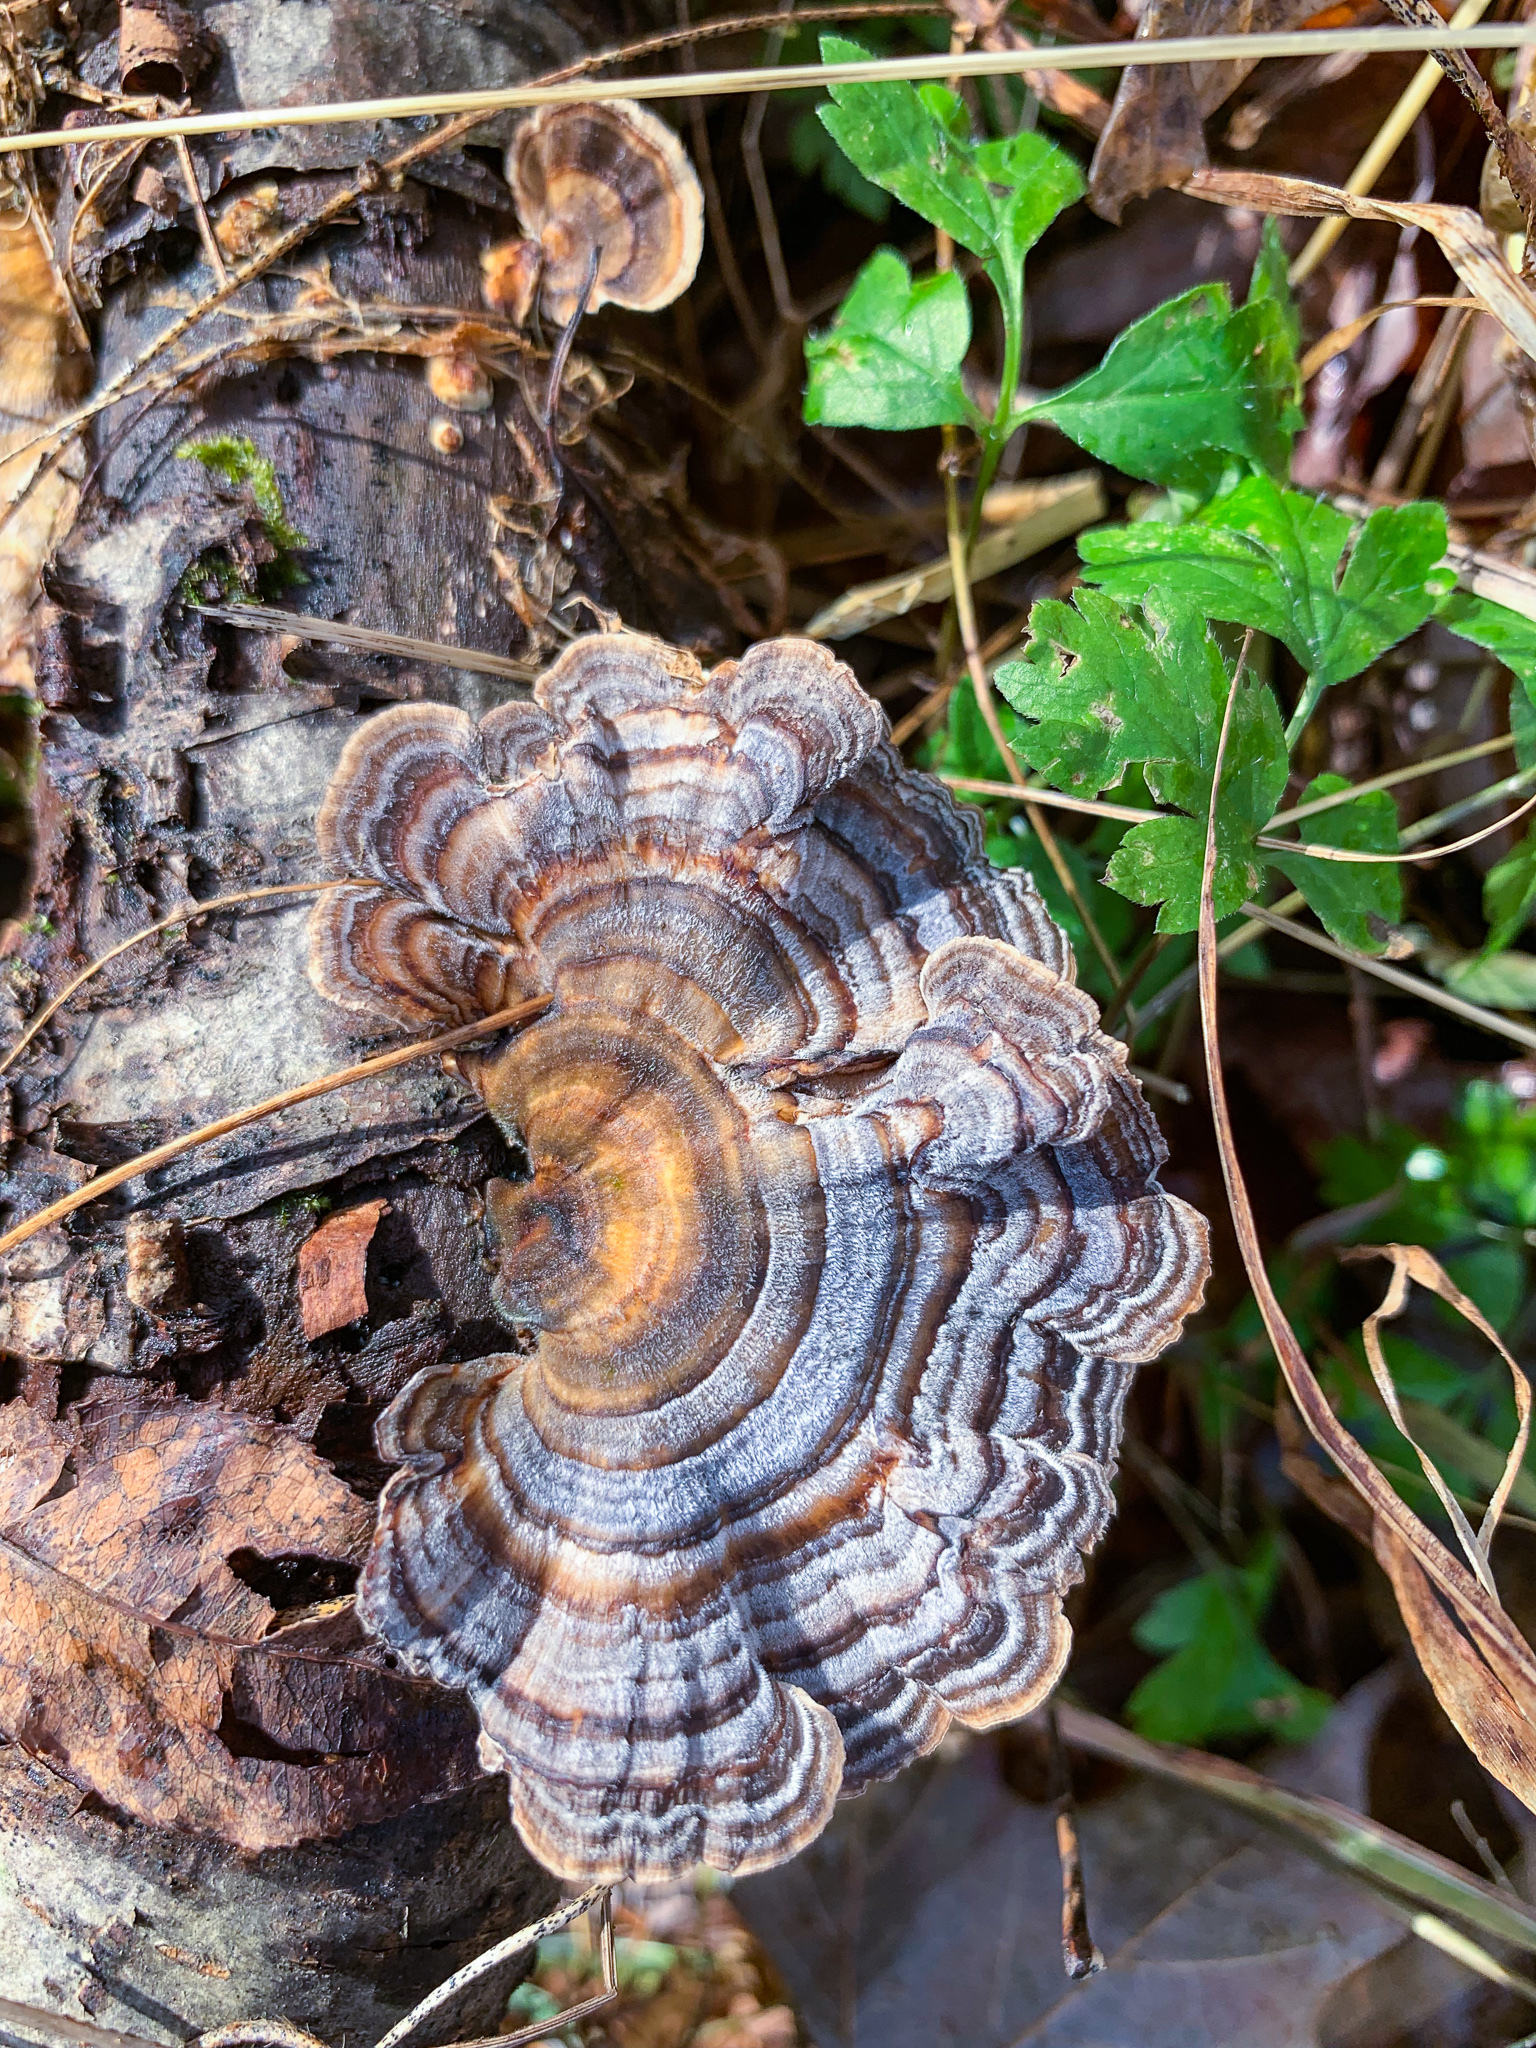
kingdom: Fungi
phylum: Basidiomycota
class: Agaricomycetes
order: Polyporales
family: Polyporaceae
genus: Trametes
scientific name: Trametes versicolor
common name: Turkeytail
